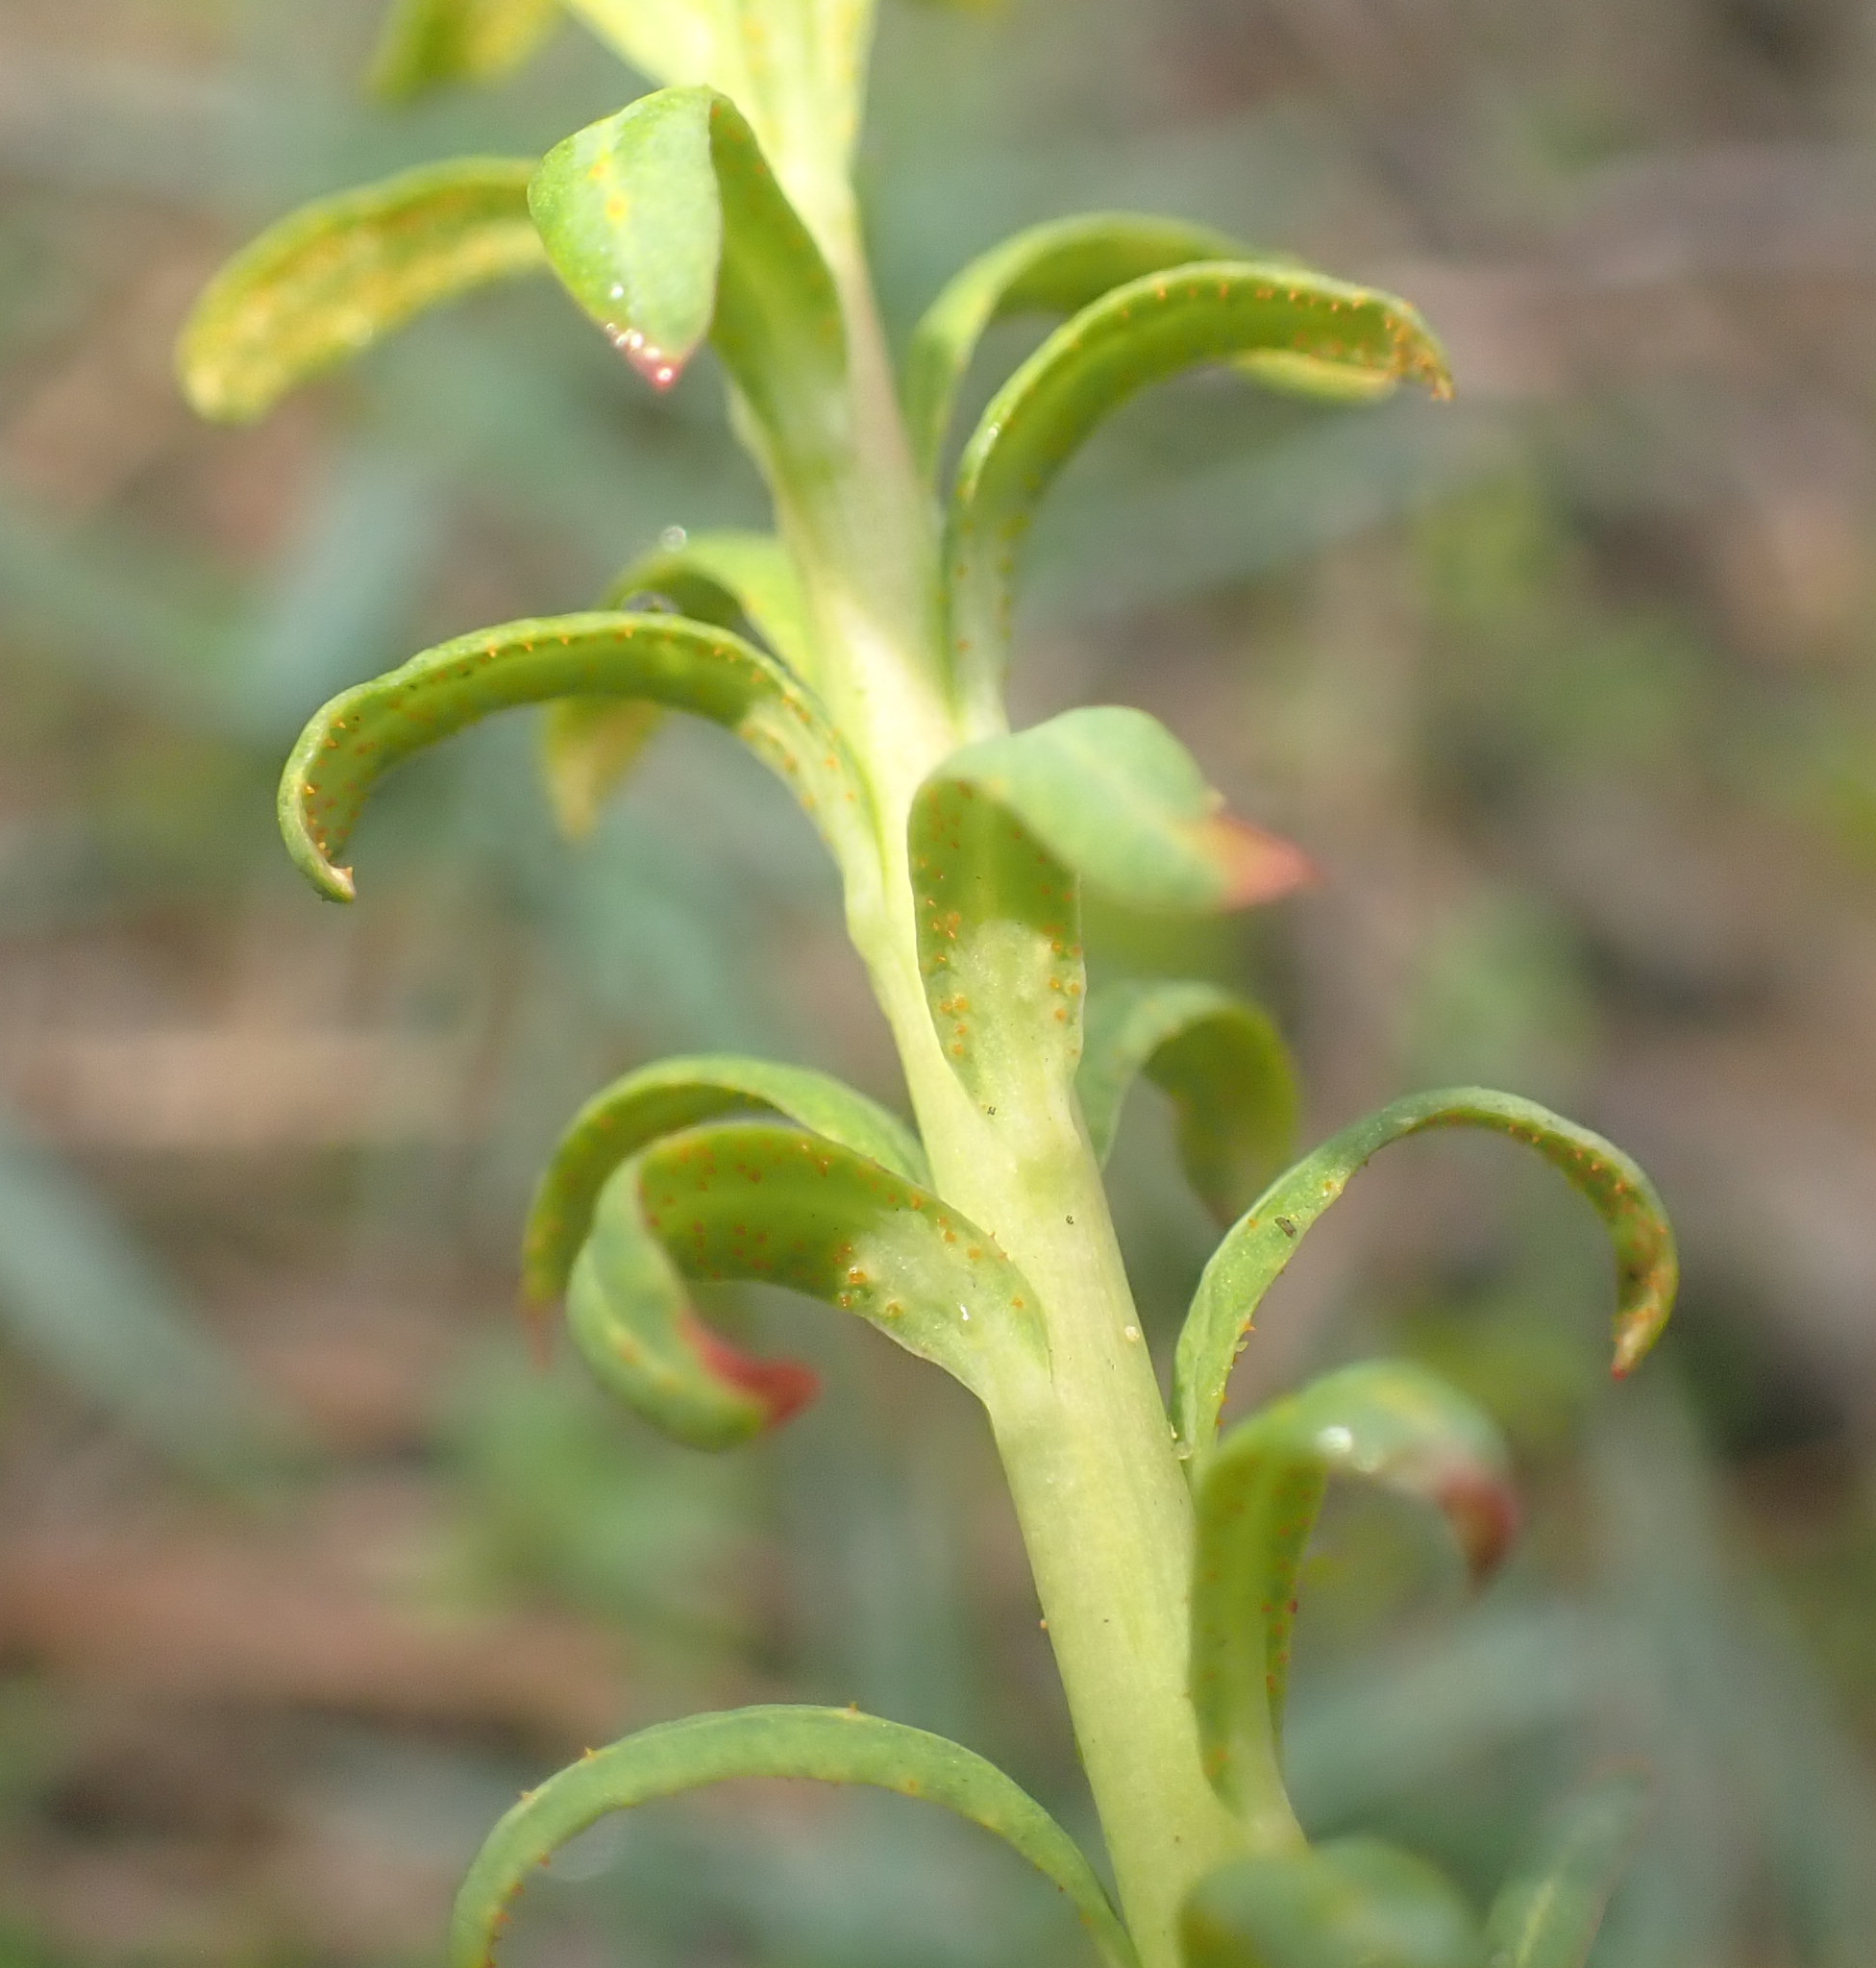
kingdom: Fungi
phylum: Basidiomycota
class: Pucciniomycetes
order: Pucciniales
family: Pucciniaceae
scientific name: Pucciniaceae
